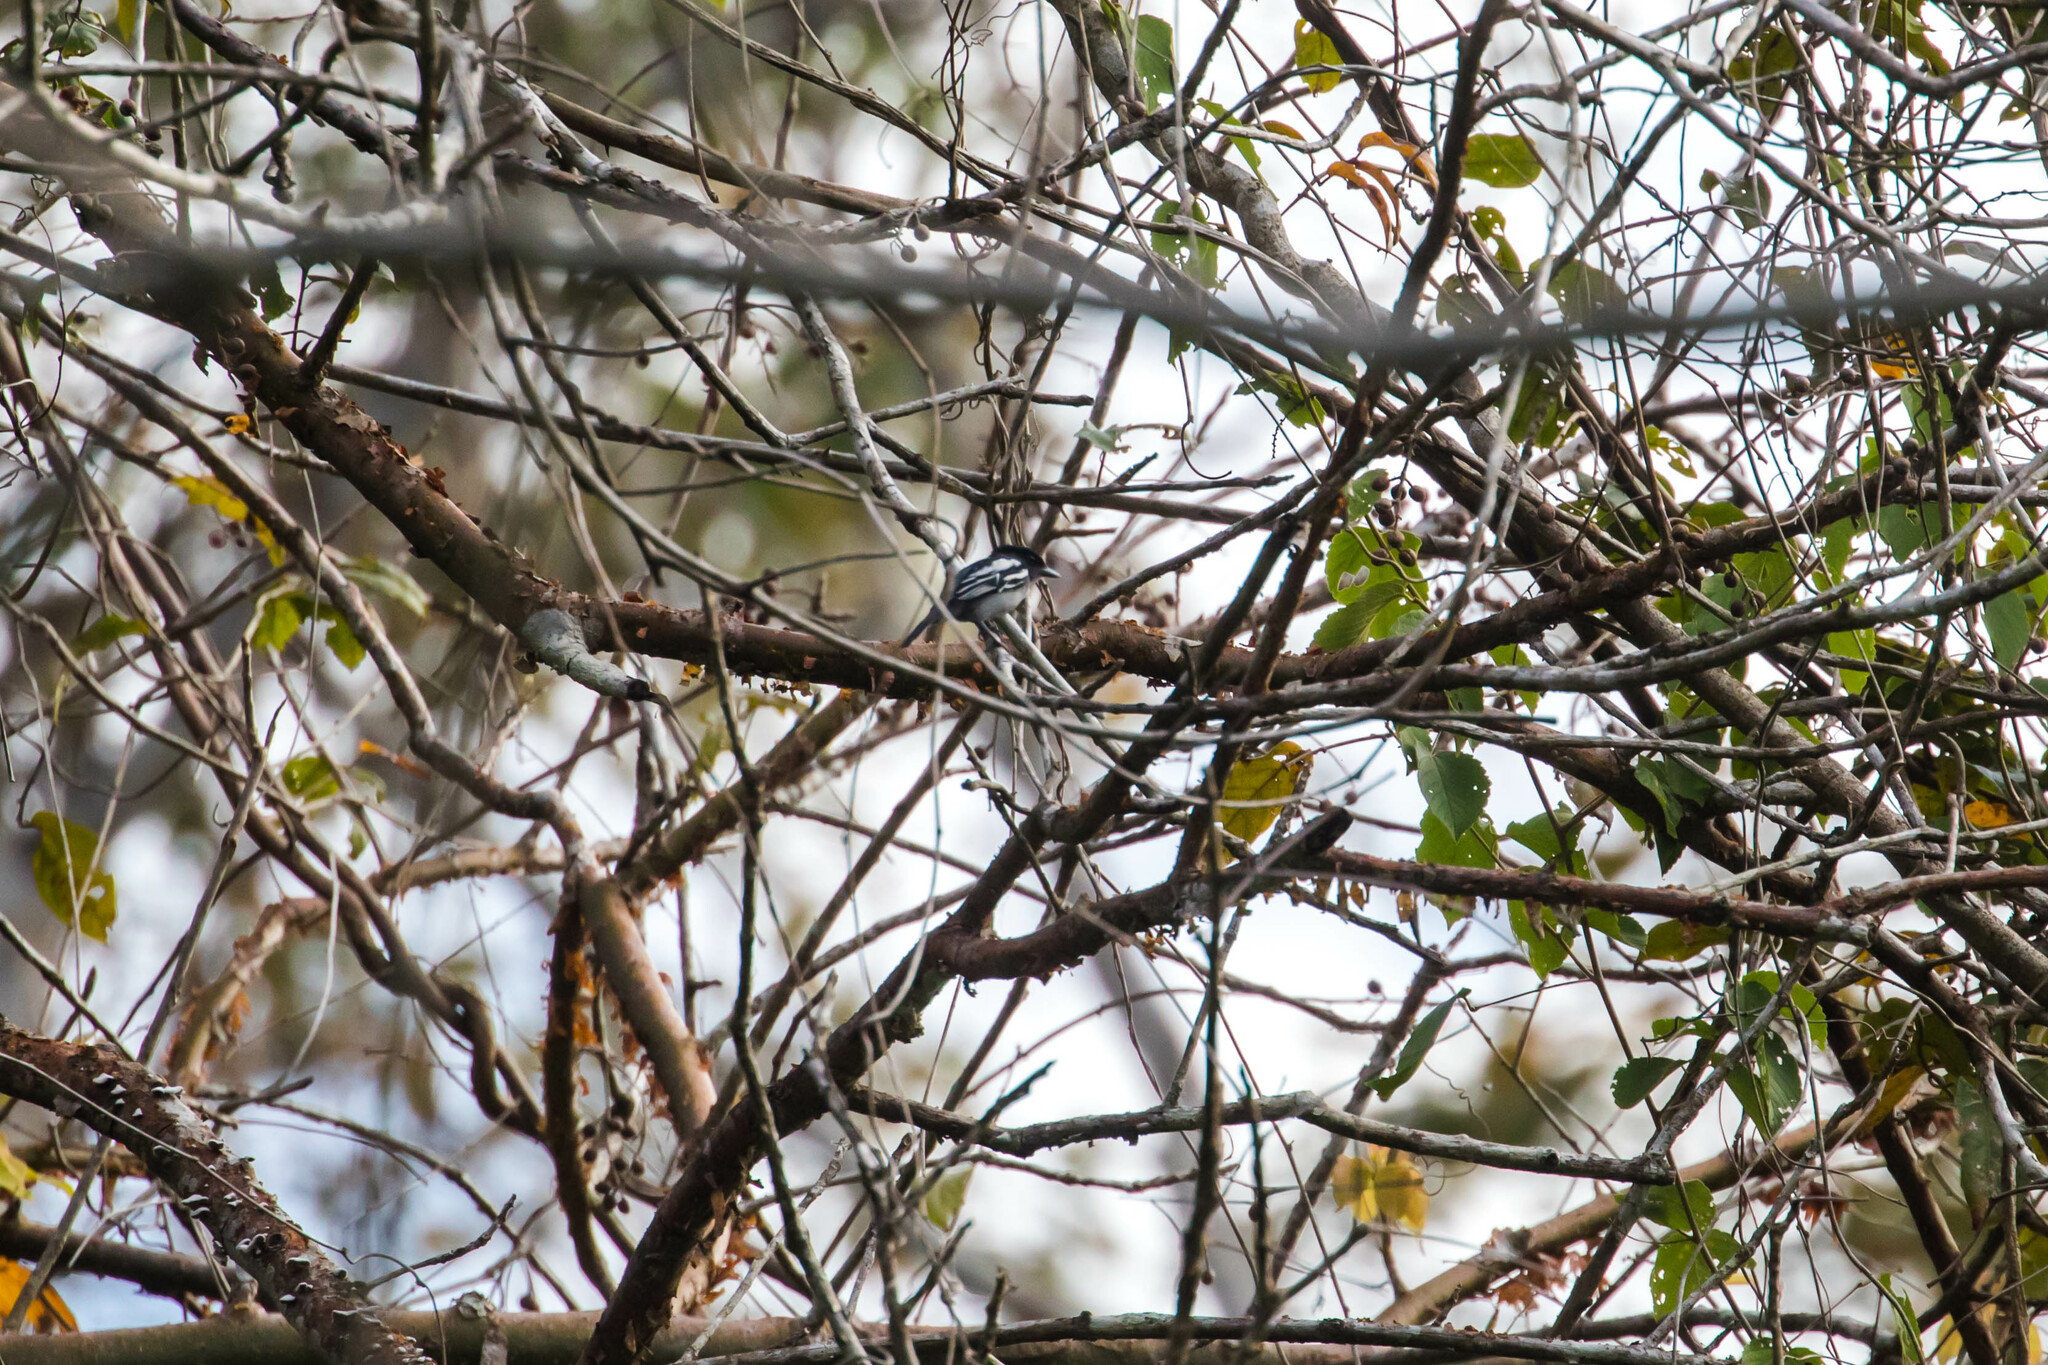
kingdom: Animalia
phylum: Chordata
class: Aves
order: Passeriformes
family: Cotingidae
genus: Pachyramphus
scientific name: Pachyramphus polychopterus
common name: White-winged becard
